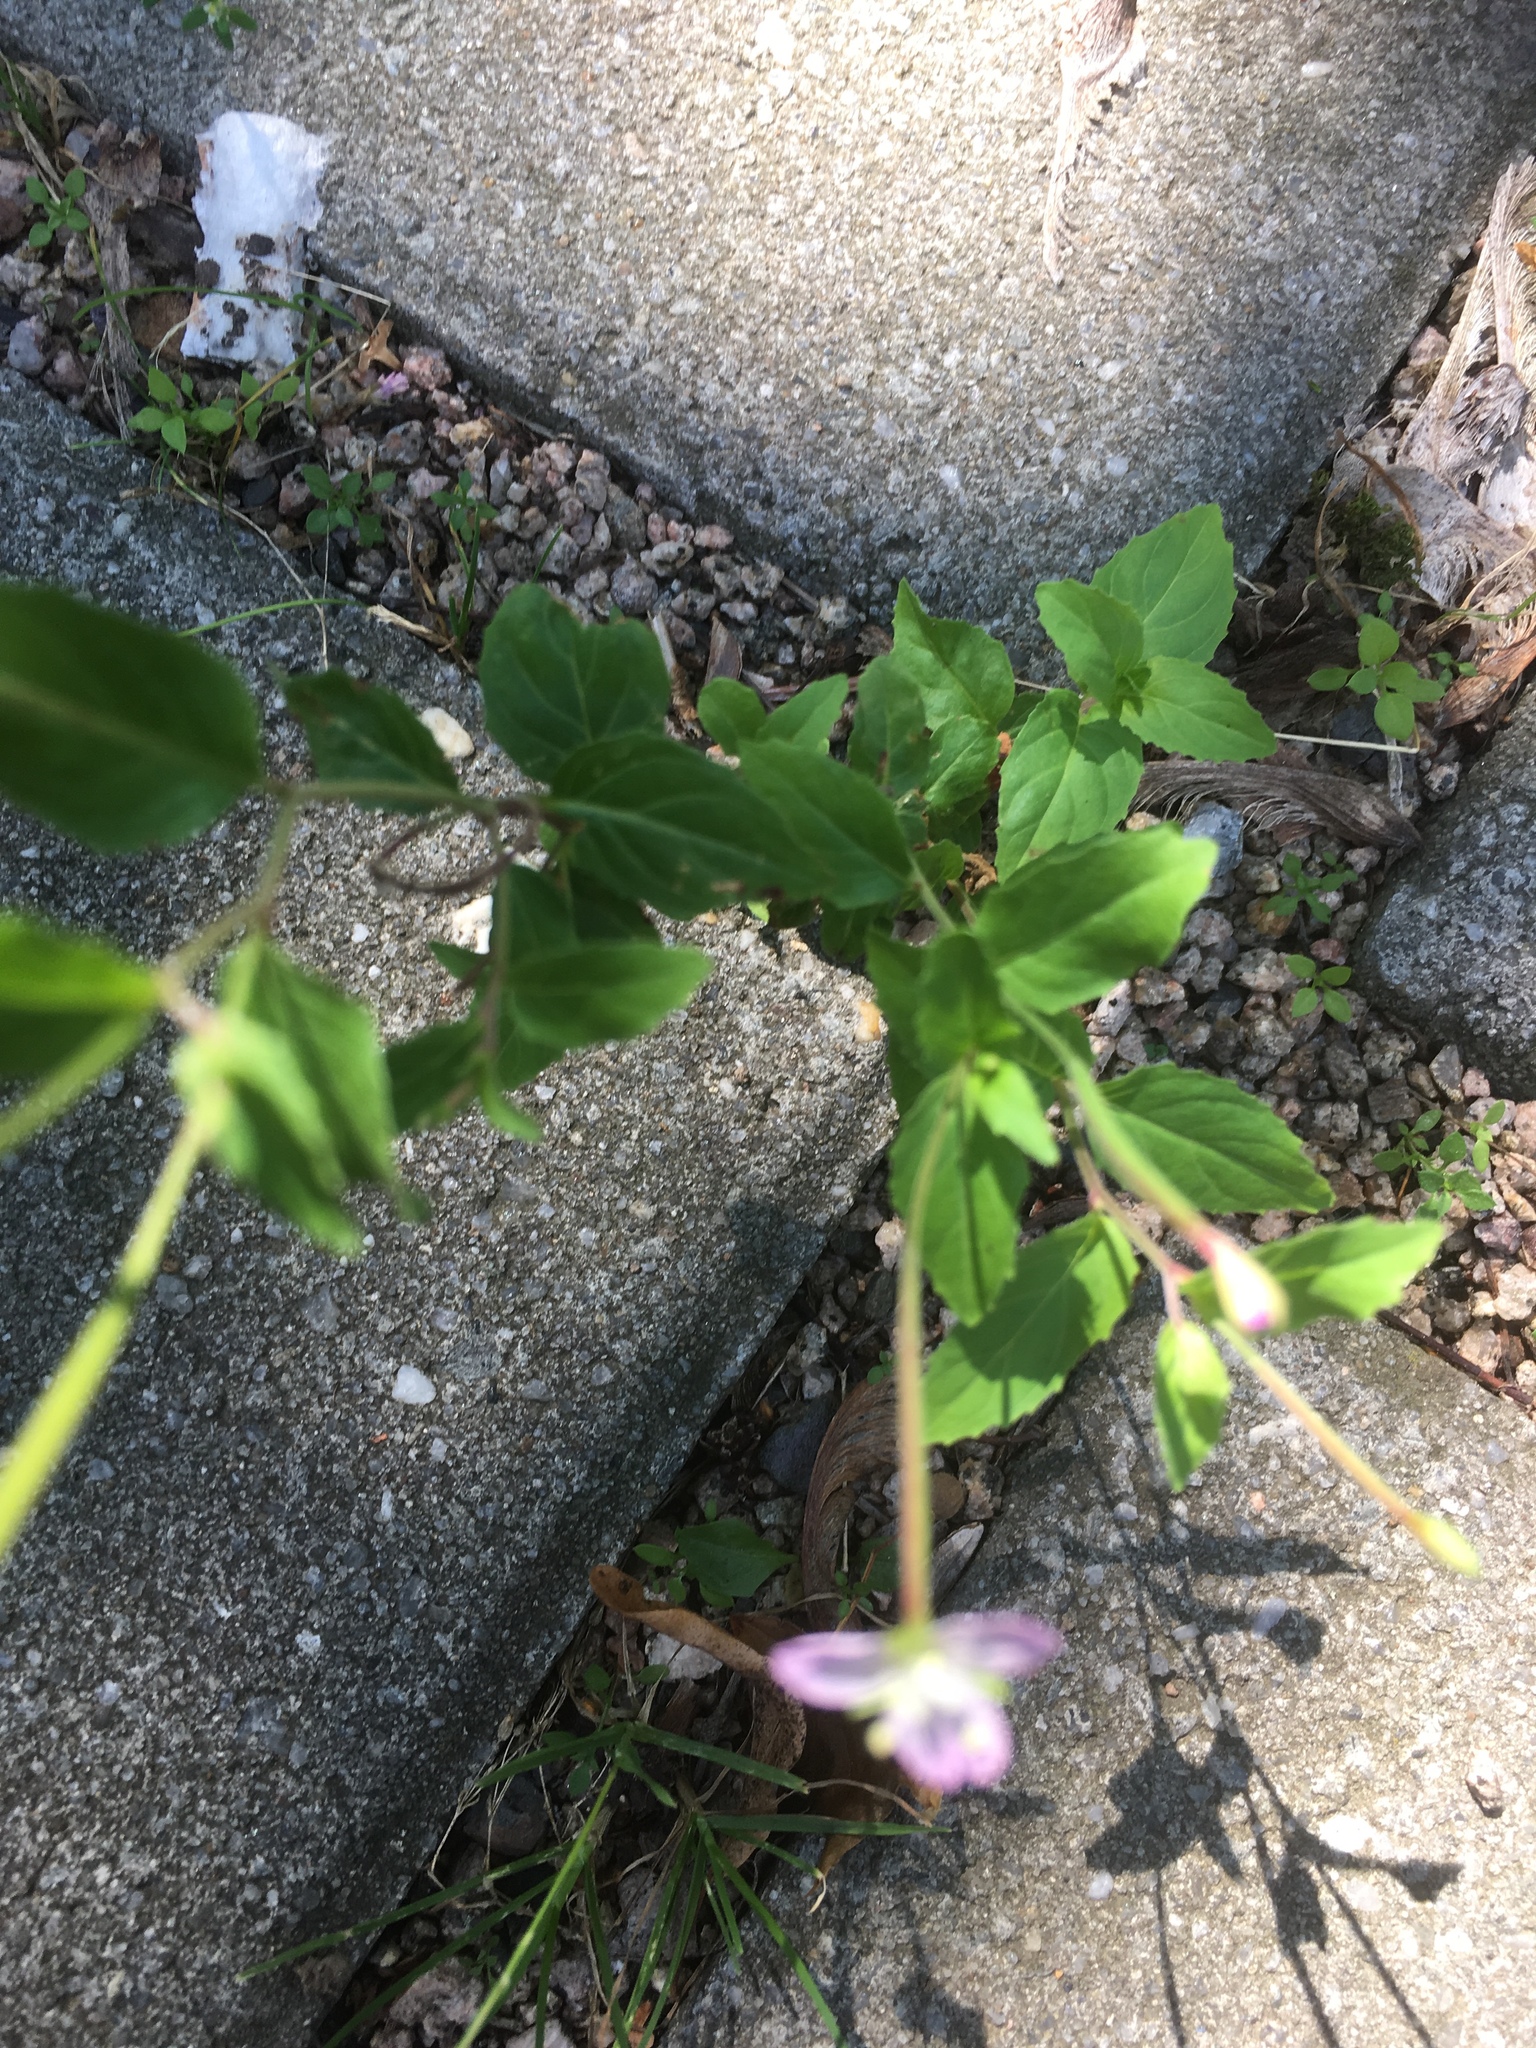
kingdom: Plantae
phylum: Tracheophyta
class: Magnoliopsida
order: Myrtales
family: Onagraceae
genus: Epilobium
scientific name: Epilobium montanum
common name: Broad-leaved willowherb
